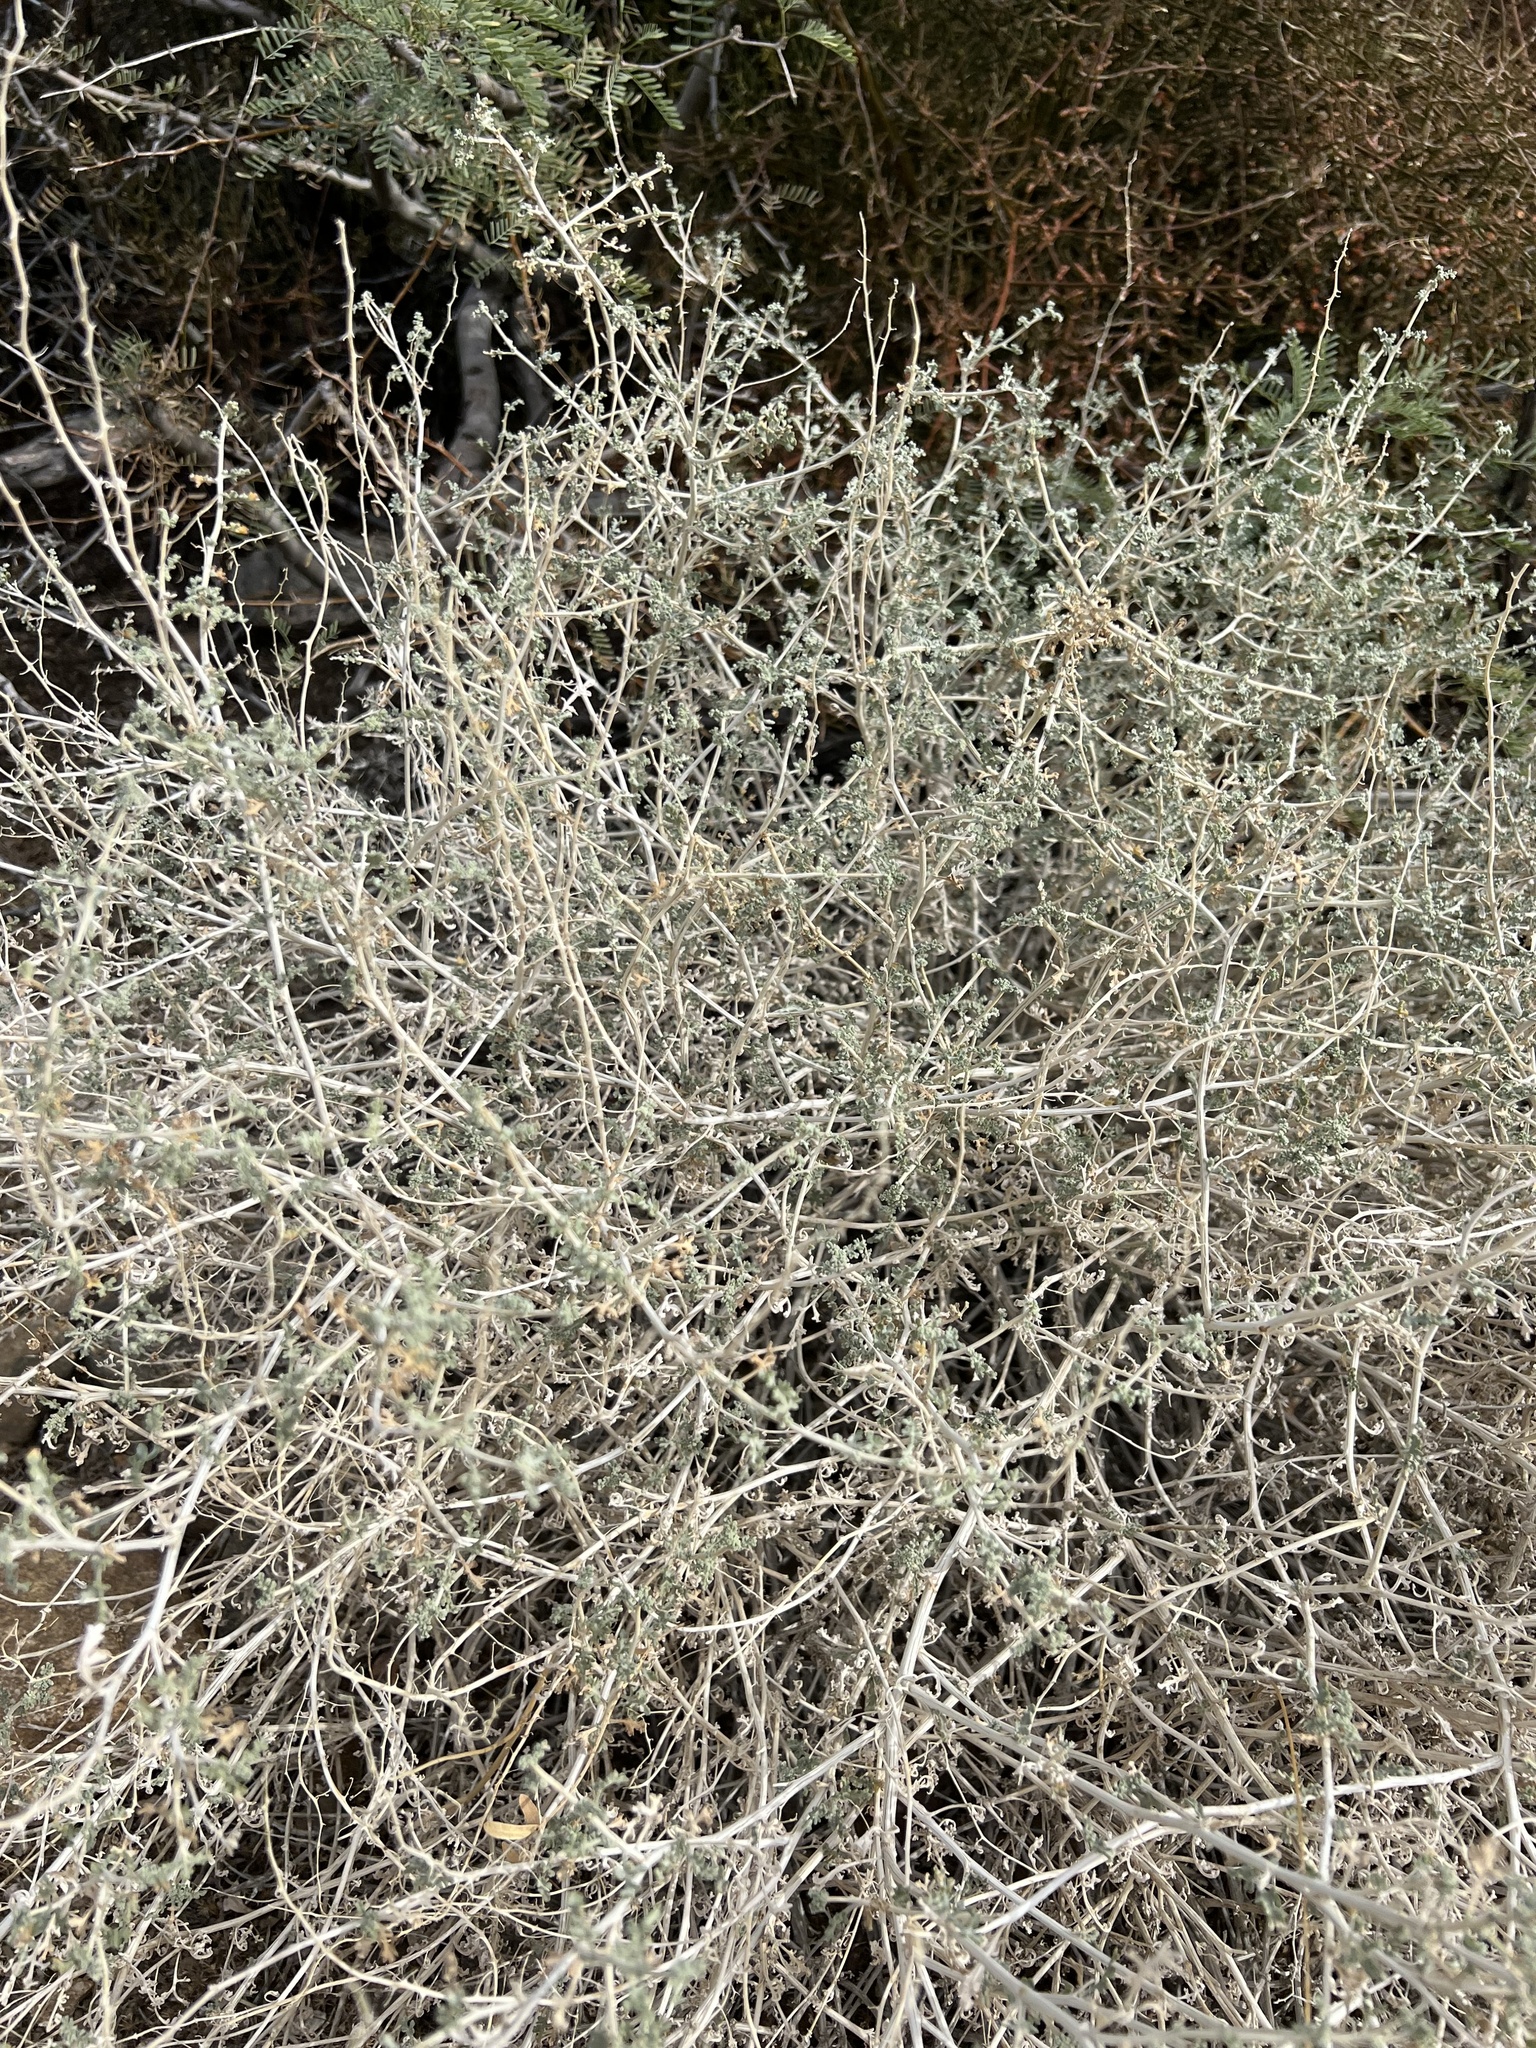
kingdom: Plantae
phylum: Tracheophyta
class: Magnoliopsida
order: Asterales
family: Asteraceae
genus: Ambrosia
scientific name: Ambrosia dumosa
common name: Bur-sage
